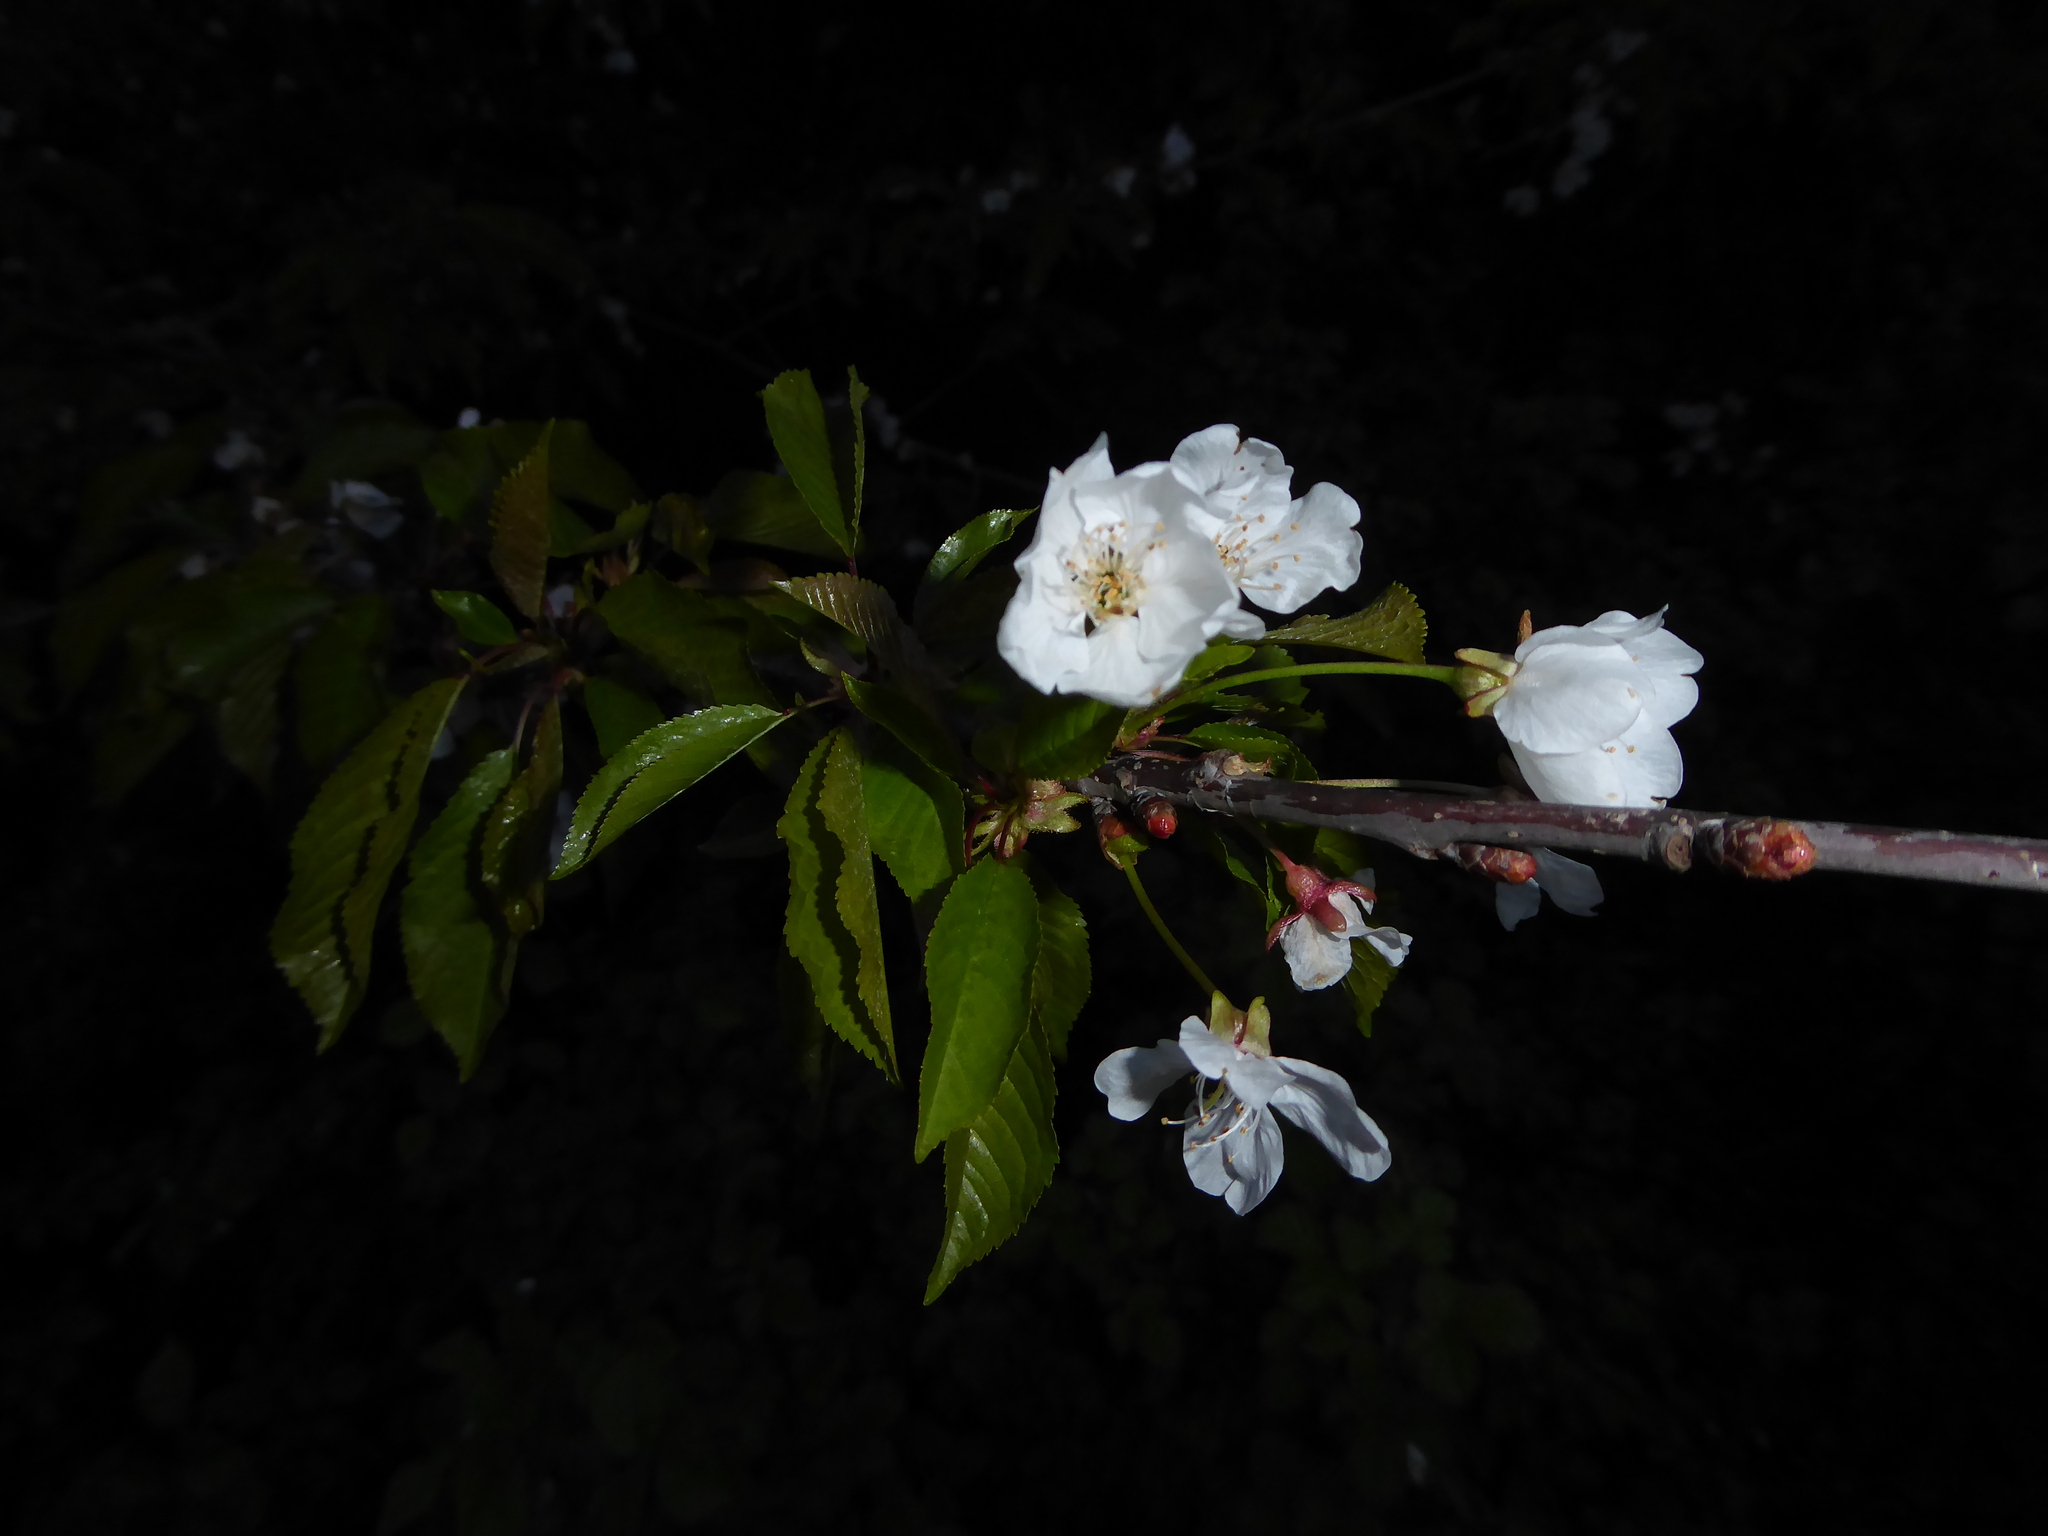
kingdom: Plantae
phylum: Tracheophyta
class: Magnoliopsida
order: Rosales
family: Rosaceae
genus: Prunus
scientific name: Prunus avium
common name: Sweet cherry
